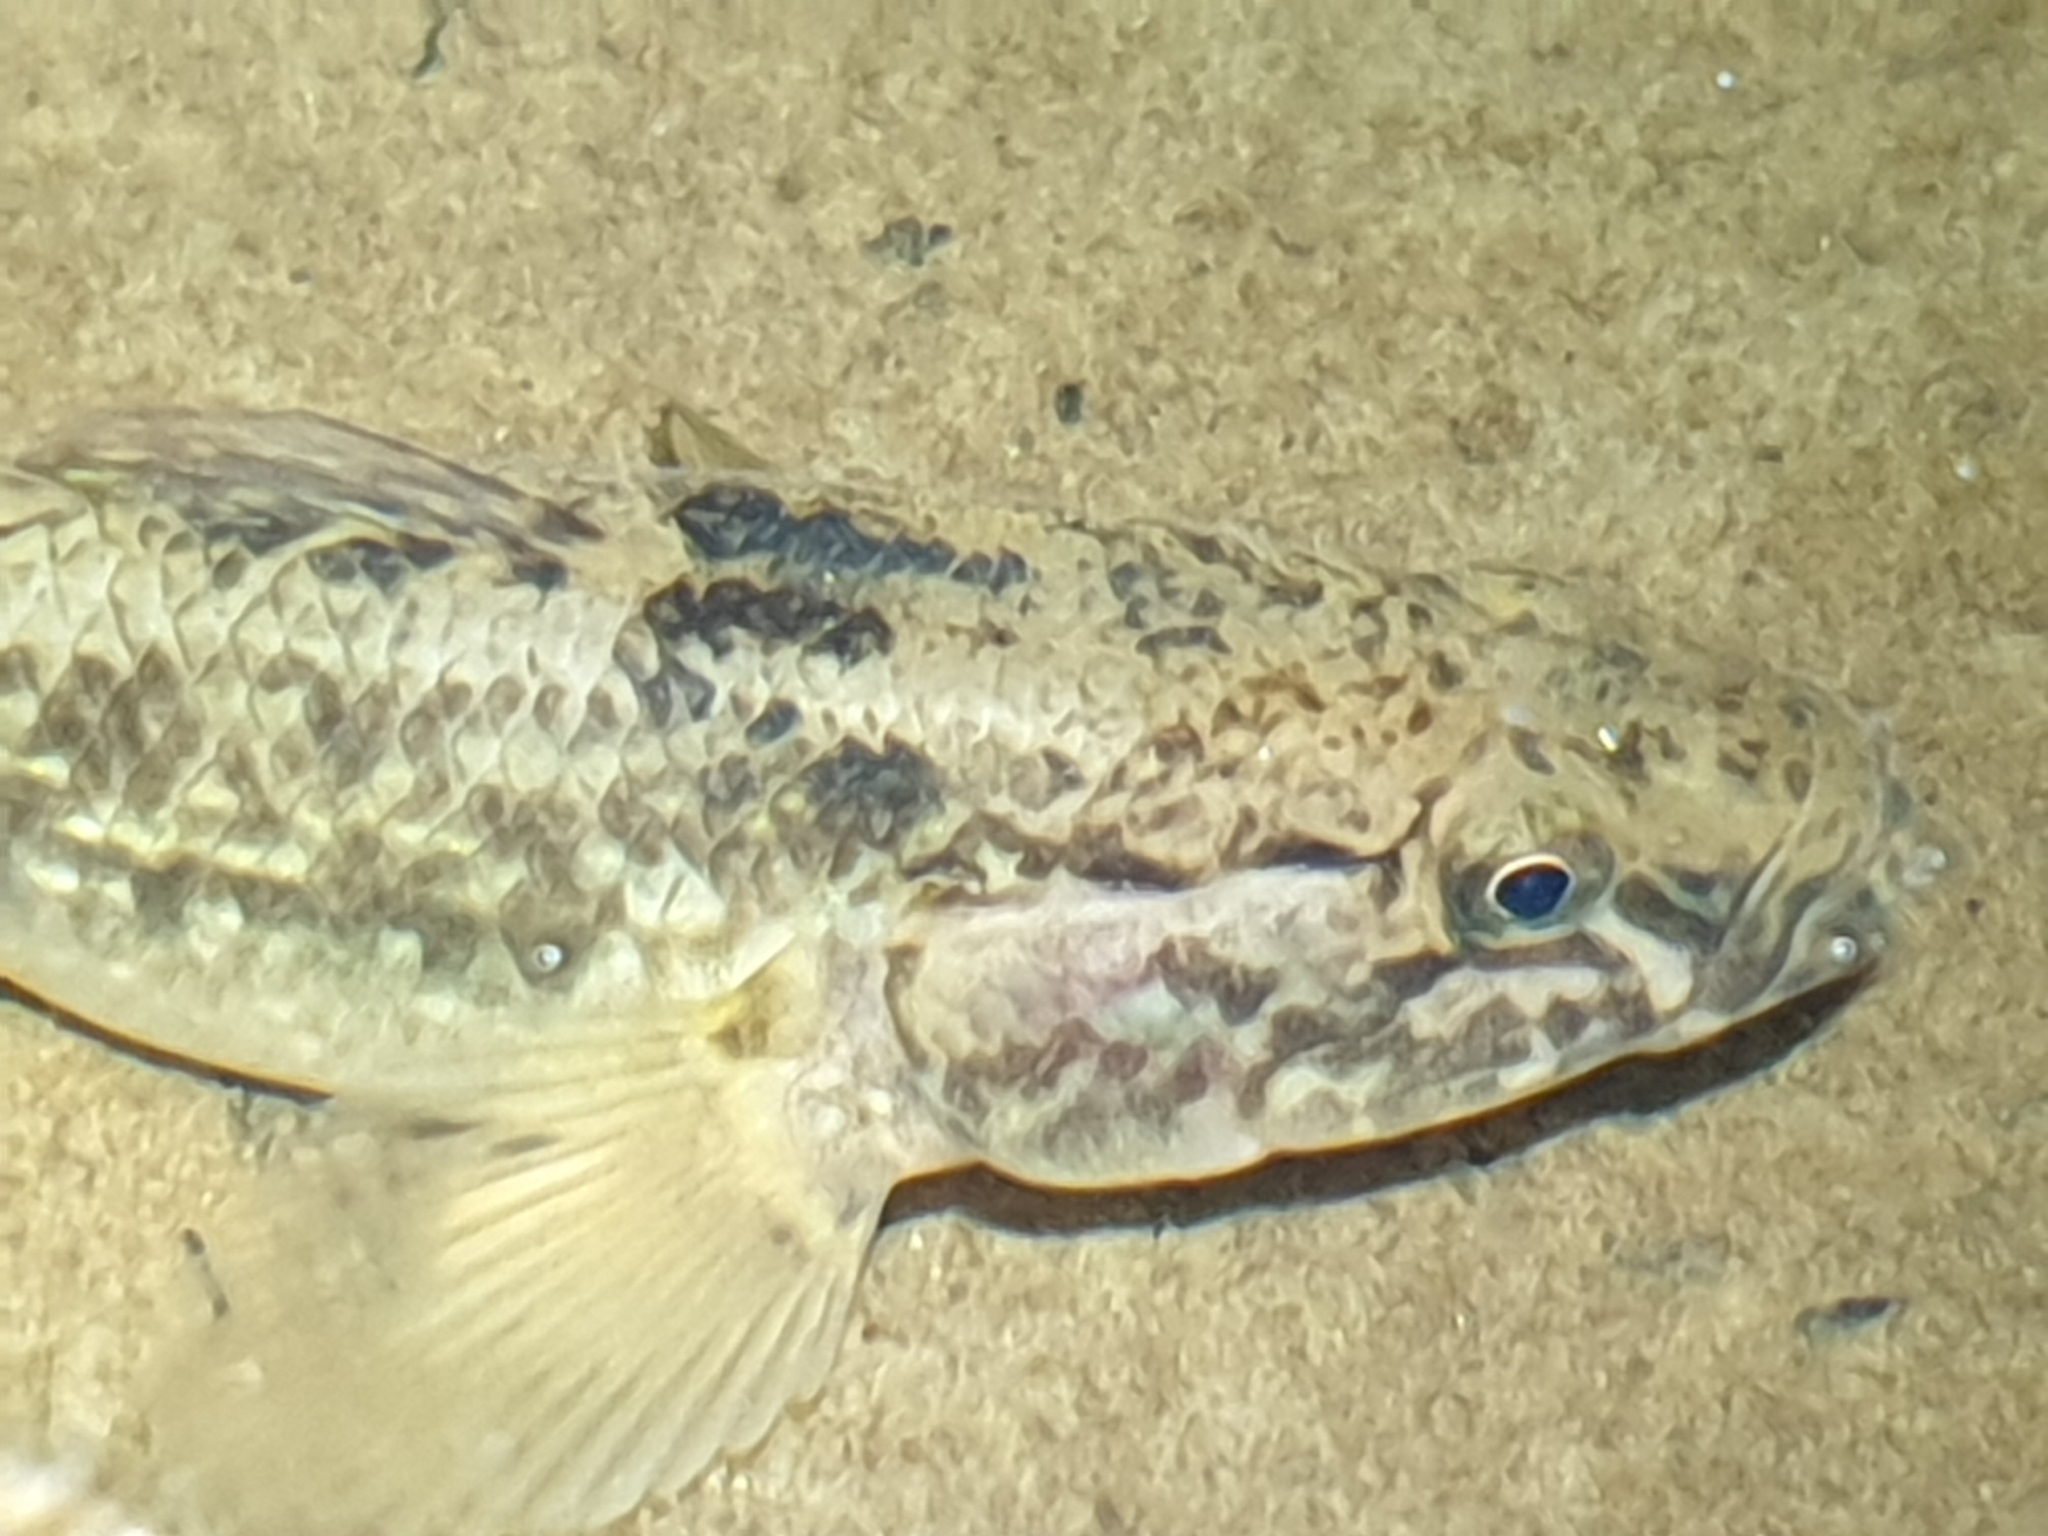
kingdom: Animalia
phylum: Chordata
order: Perciformes
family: Eleotridae
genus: Gobiomorphus
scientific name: Gobiomorphus gobioides
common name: Giant bully
